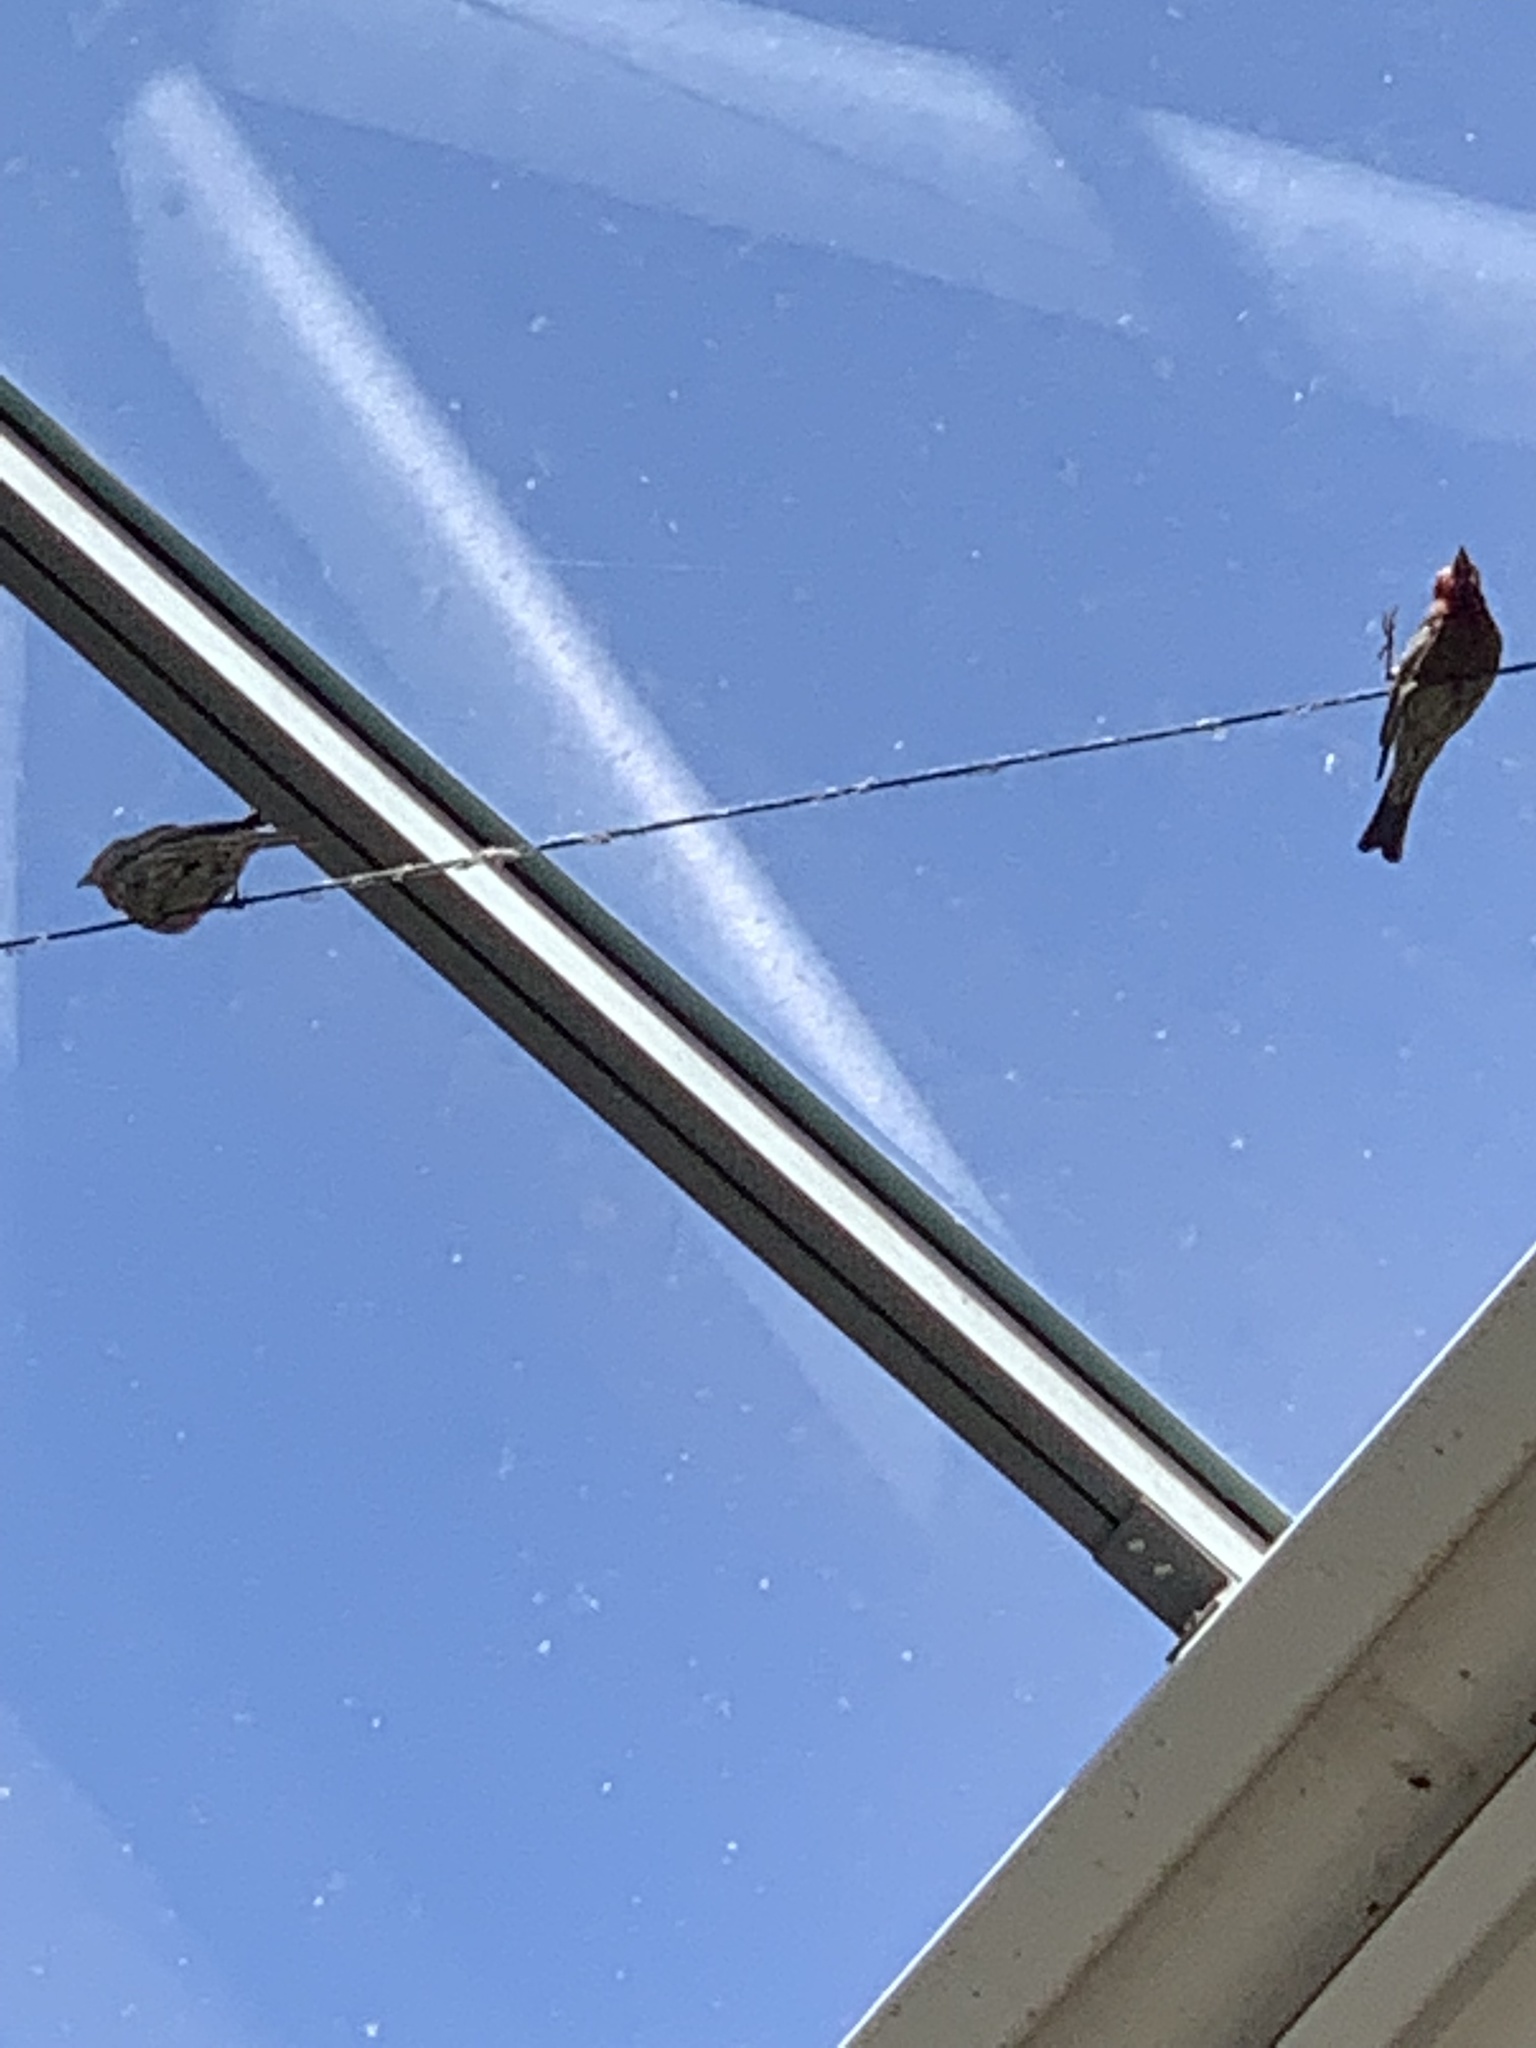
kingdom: Animalia
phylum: Chordata
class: Aves
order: Passeriformes
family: Fringillidae
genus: Haemorhous
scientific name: Haemorhous mexicanus
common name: House finch
